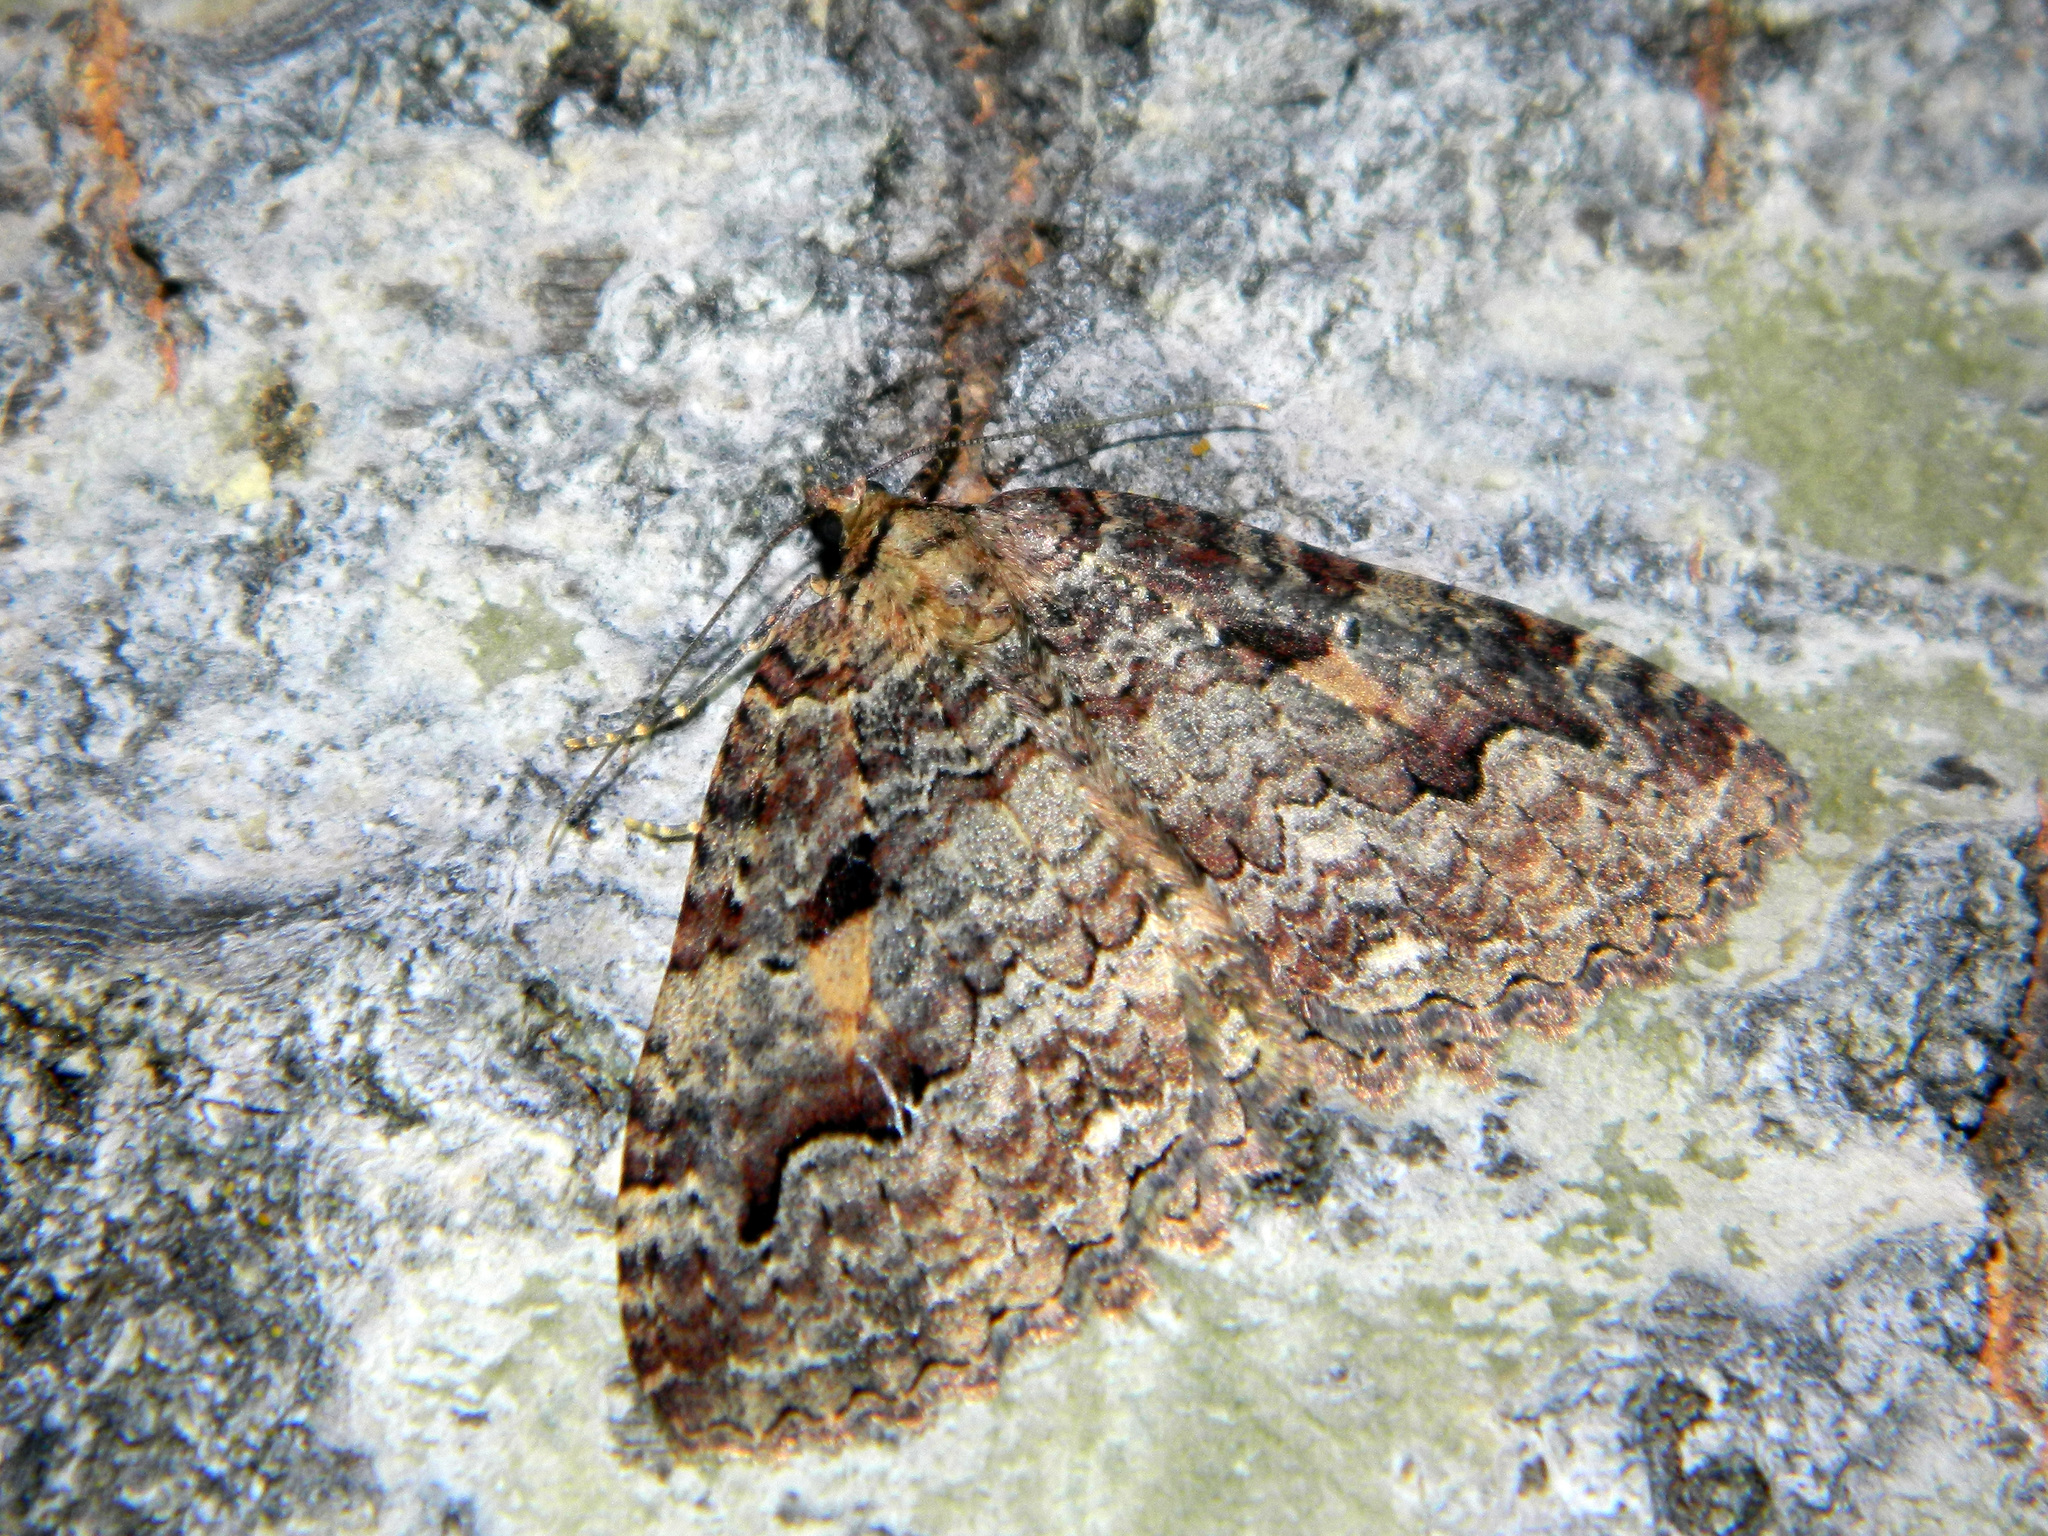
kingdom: Animalia
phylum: Arthropoda
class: Insecta
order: Lepidoptera
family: Geometridae
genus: Triphosa
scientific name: Triphosa haesitata
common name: Tissue moth
